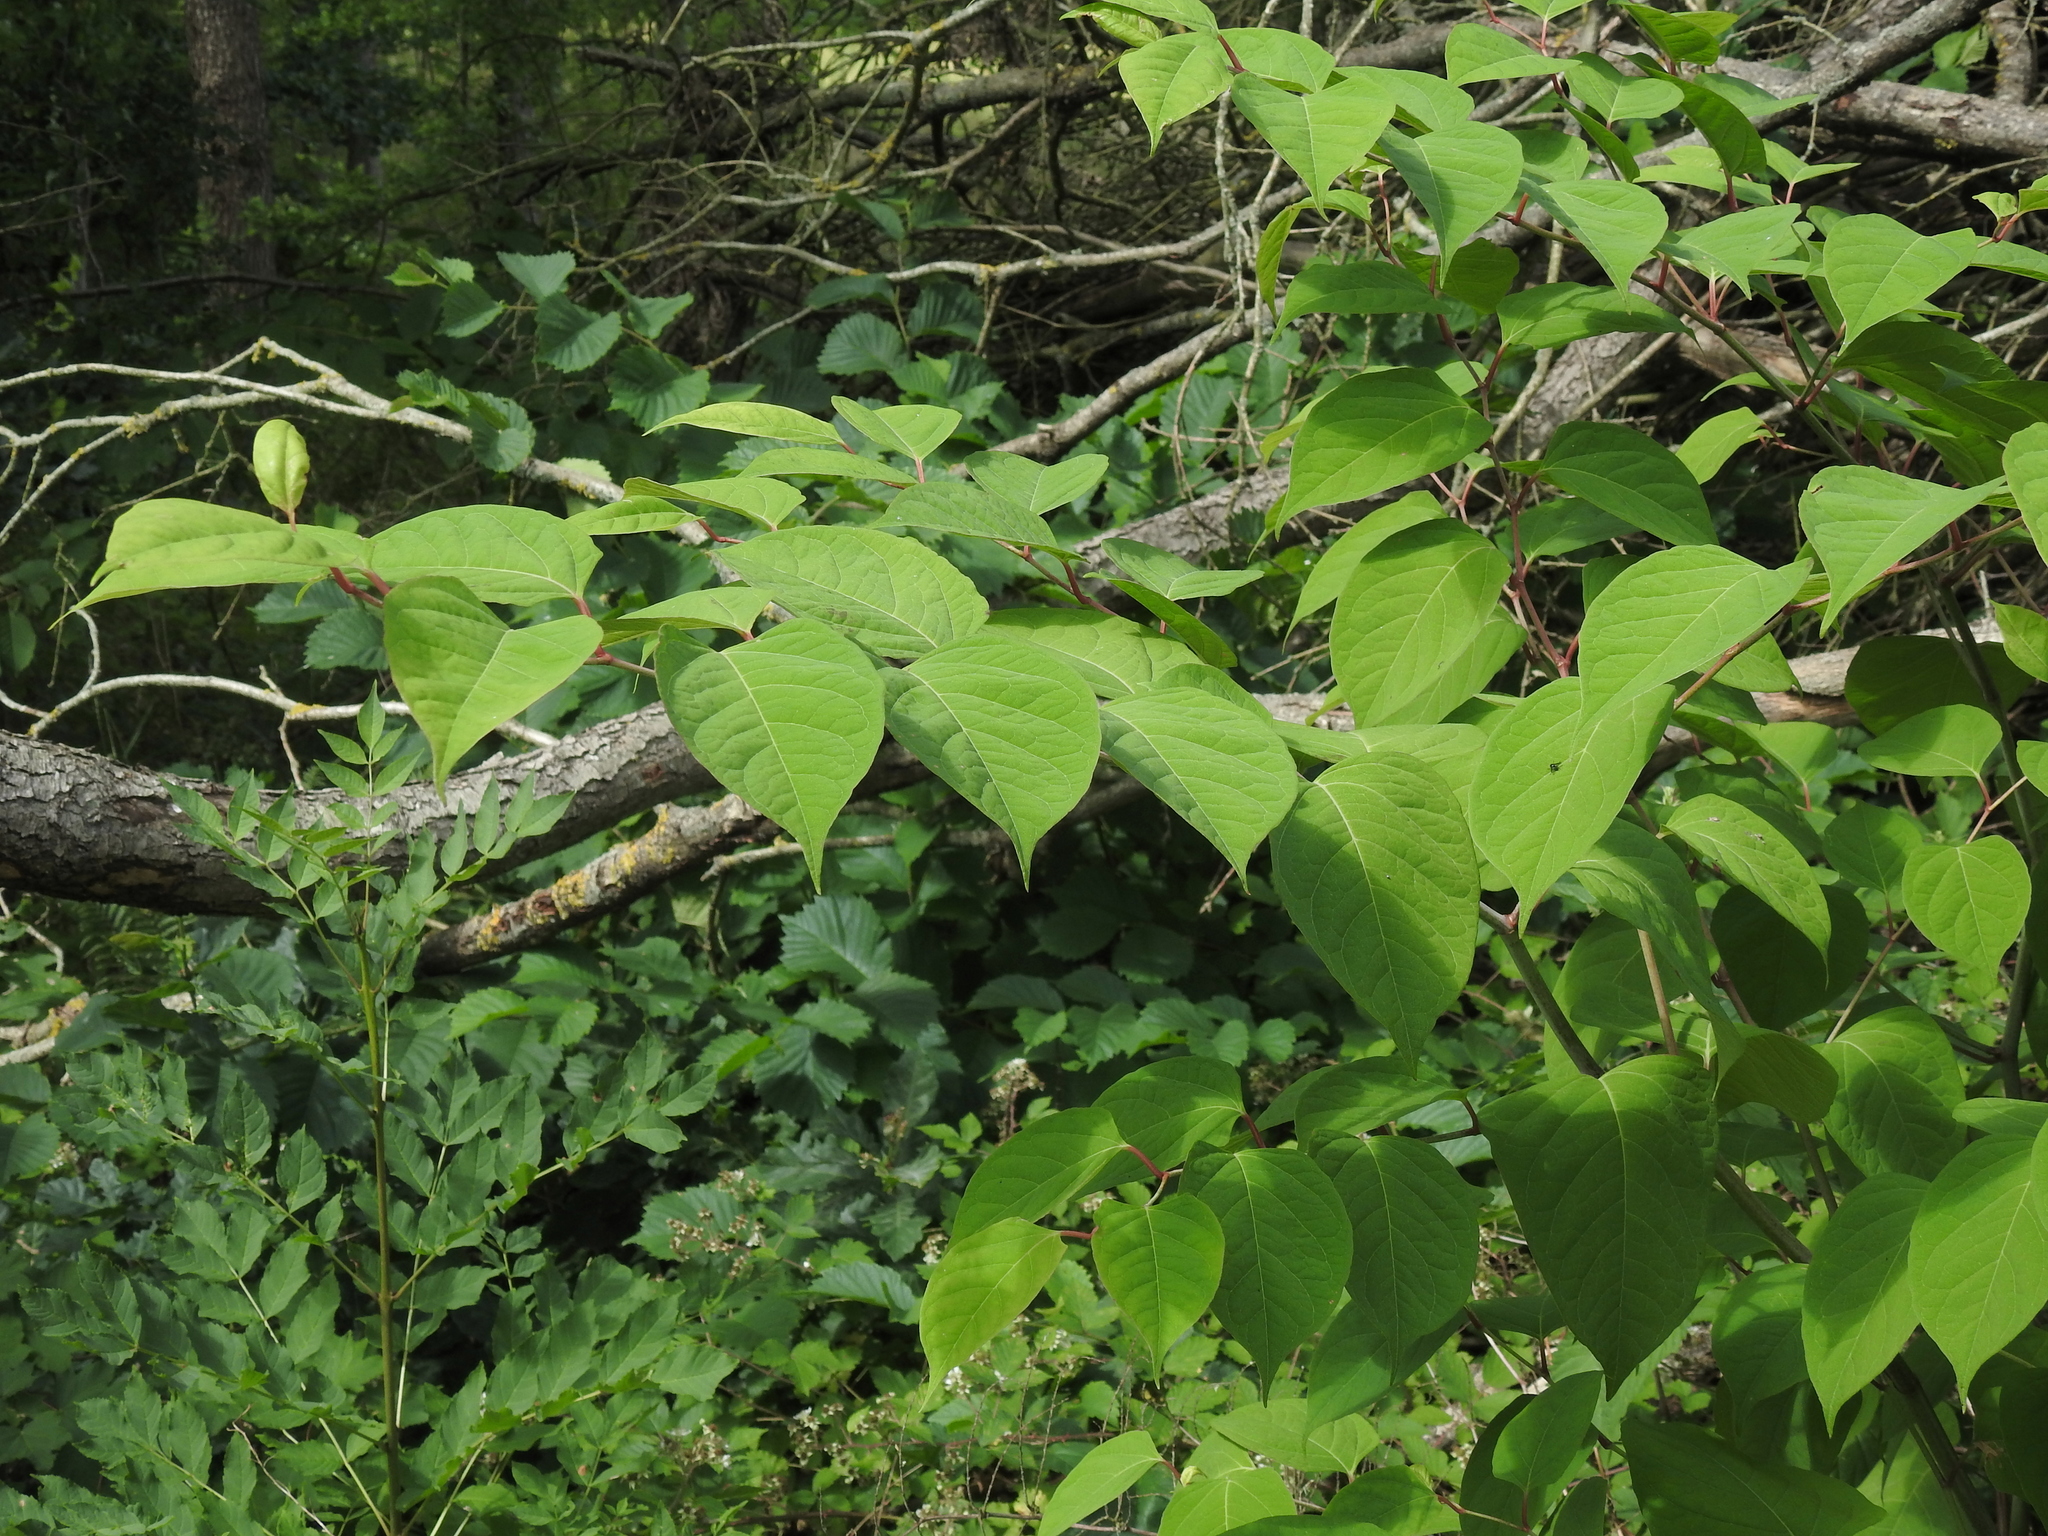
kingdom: Plantae
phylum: Tracheophyta
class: Magnoliopsida
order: Caryophyllales
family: Polygonaceae
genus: Reynoutria
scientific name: Reynoutria japonica
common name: Japanese knotweed
